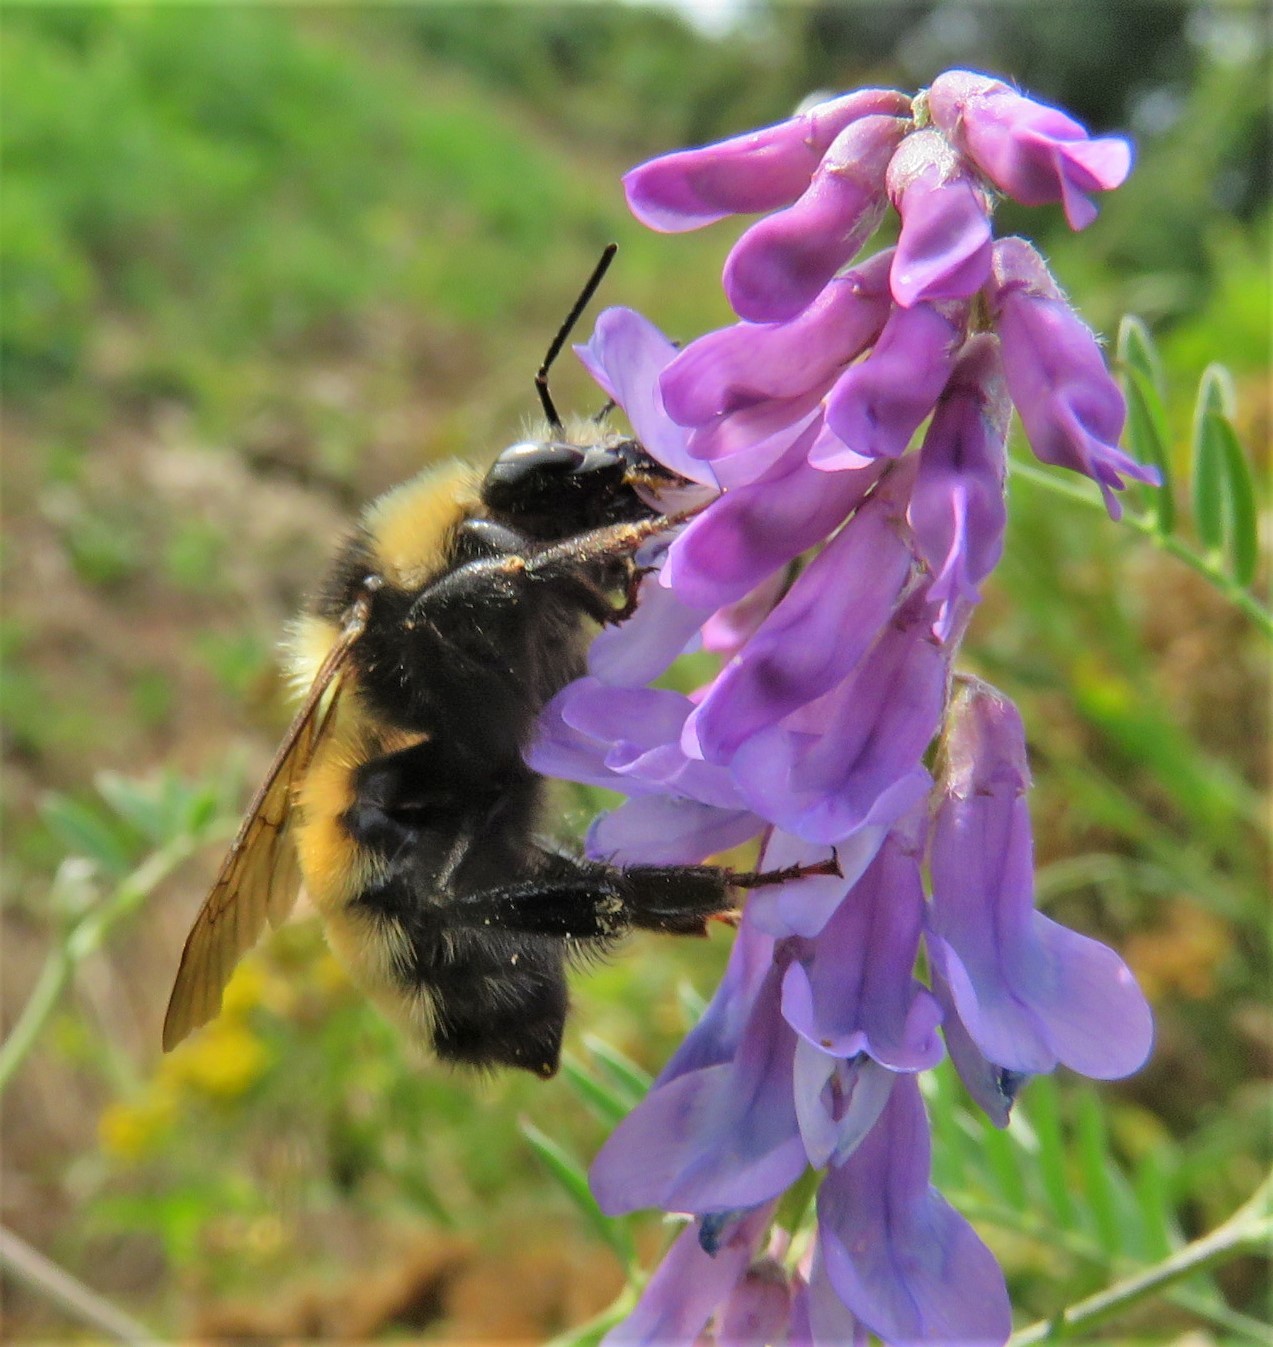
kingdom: Animalia
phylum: Arthropoda
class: Insecta
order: Hymenoptera
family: Apidae
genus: Bombus
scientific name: Bombus borealis
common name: Northern amber bumble bee
